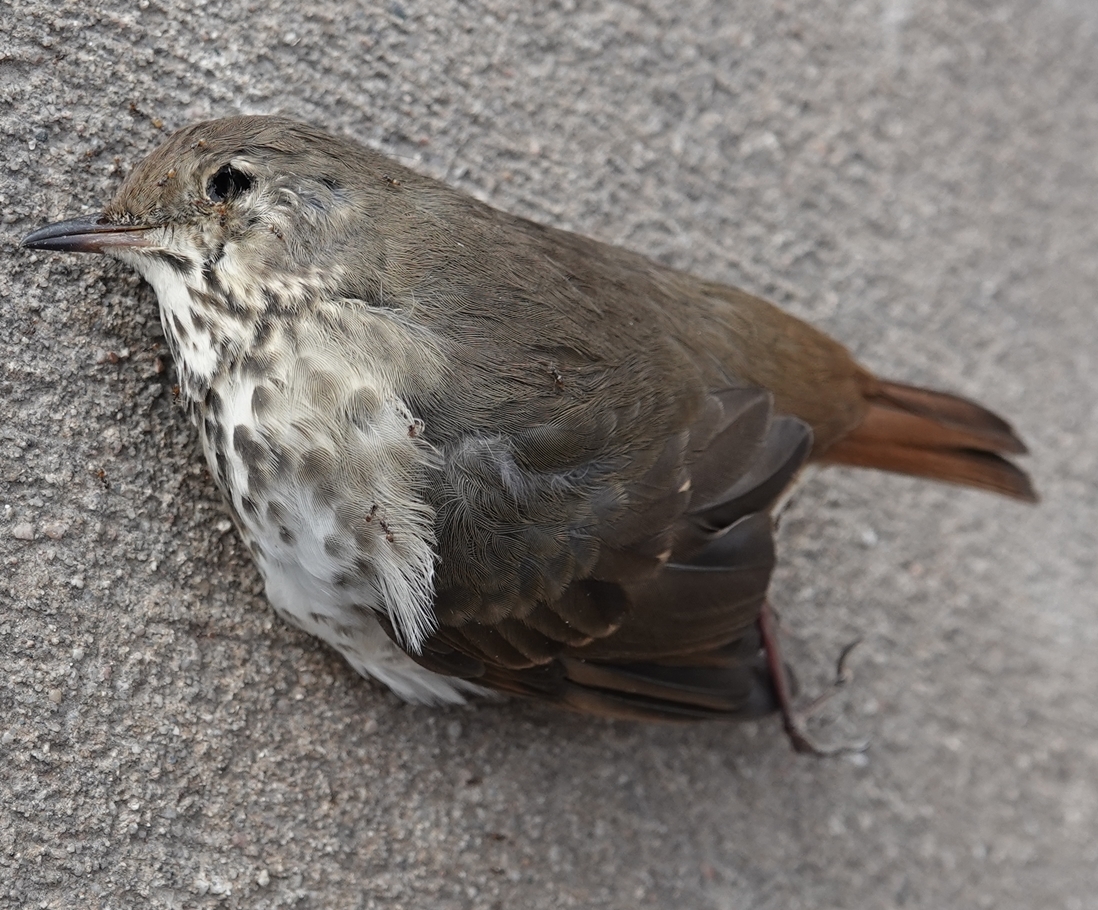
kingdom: Animalia
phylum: Chordata
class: Aves
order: Passeriformes
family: Turdidae
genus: Catharus
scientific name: Catharus guttatus
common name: Hermit thrush
